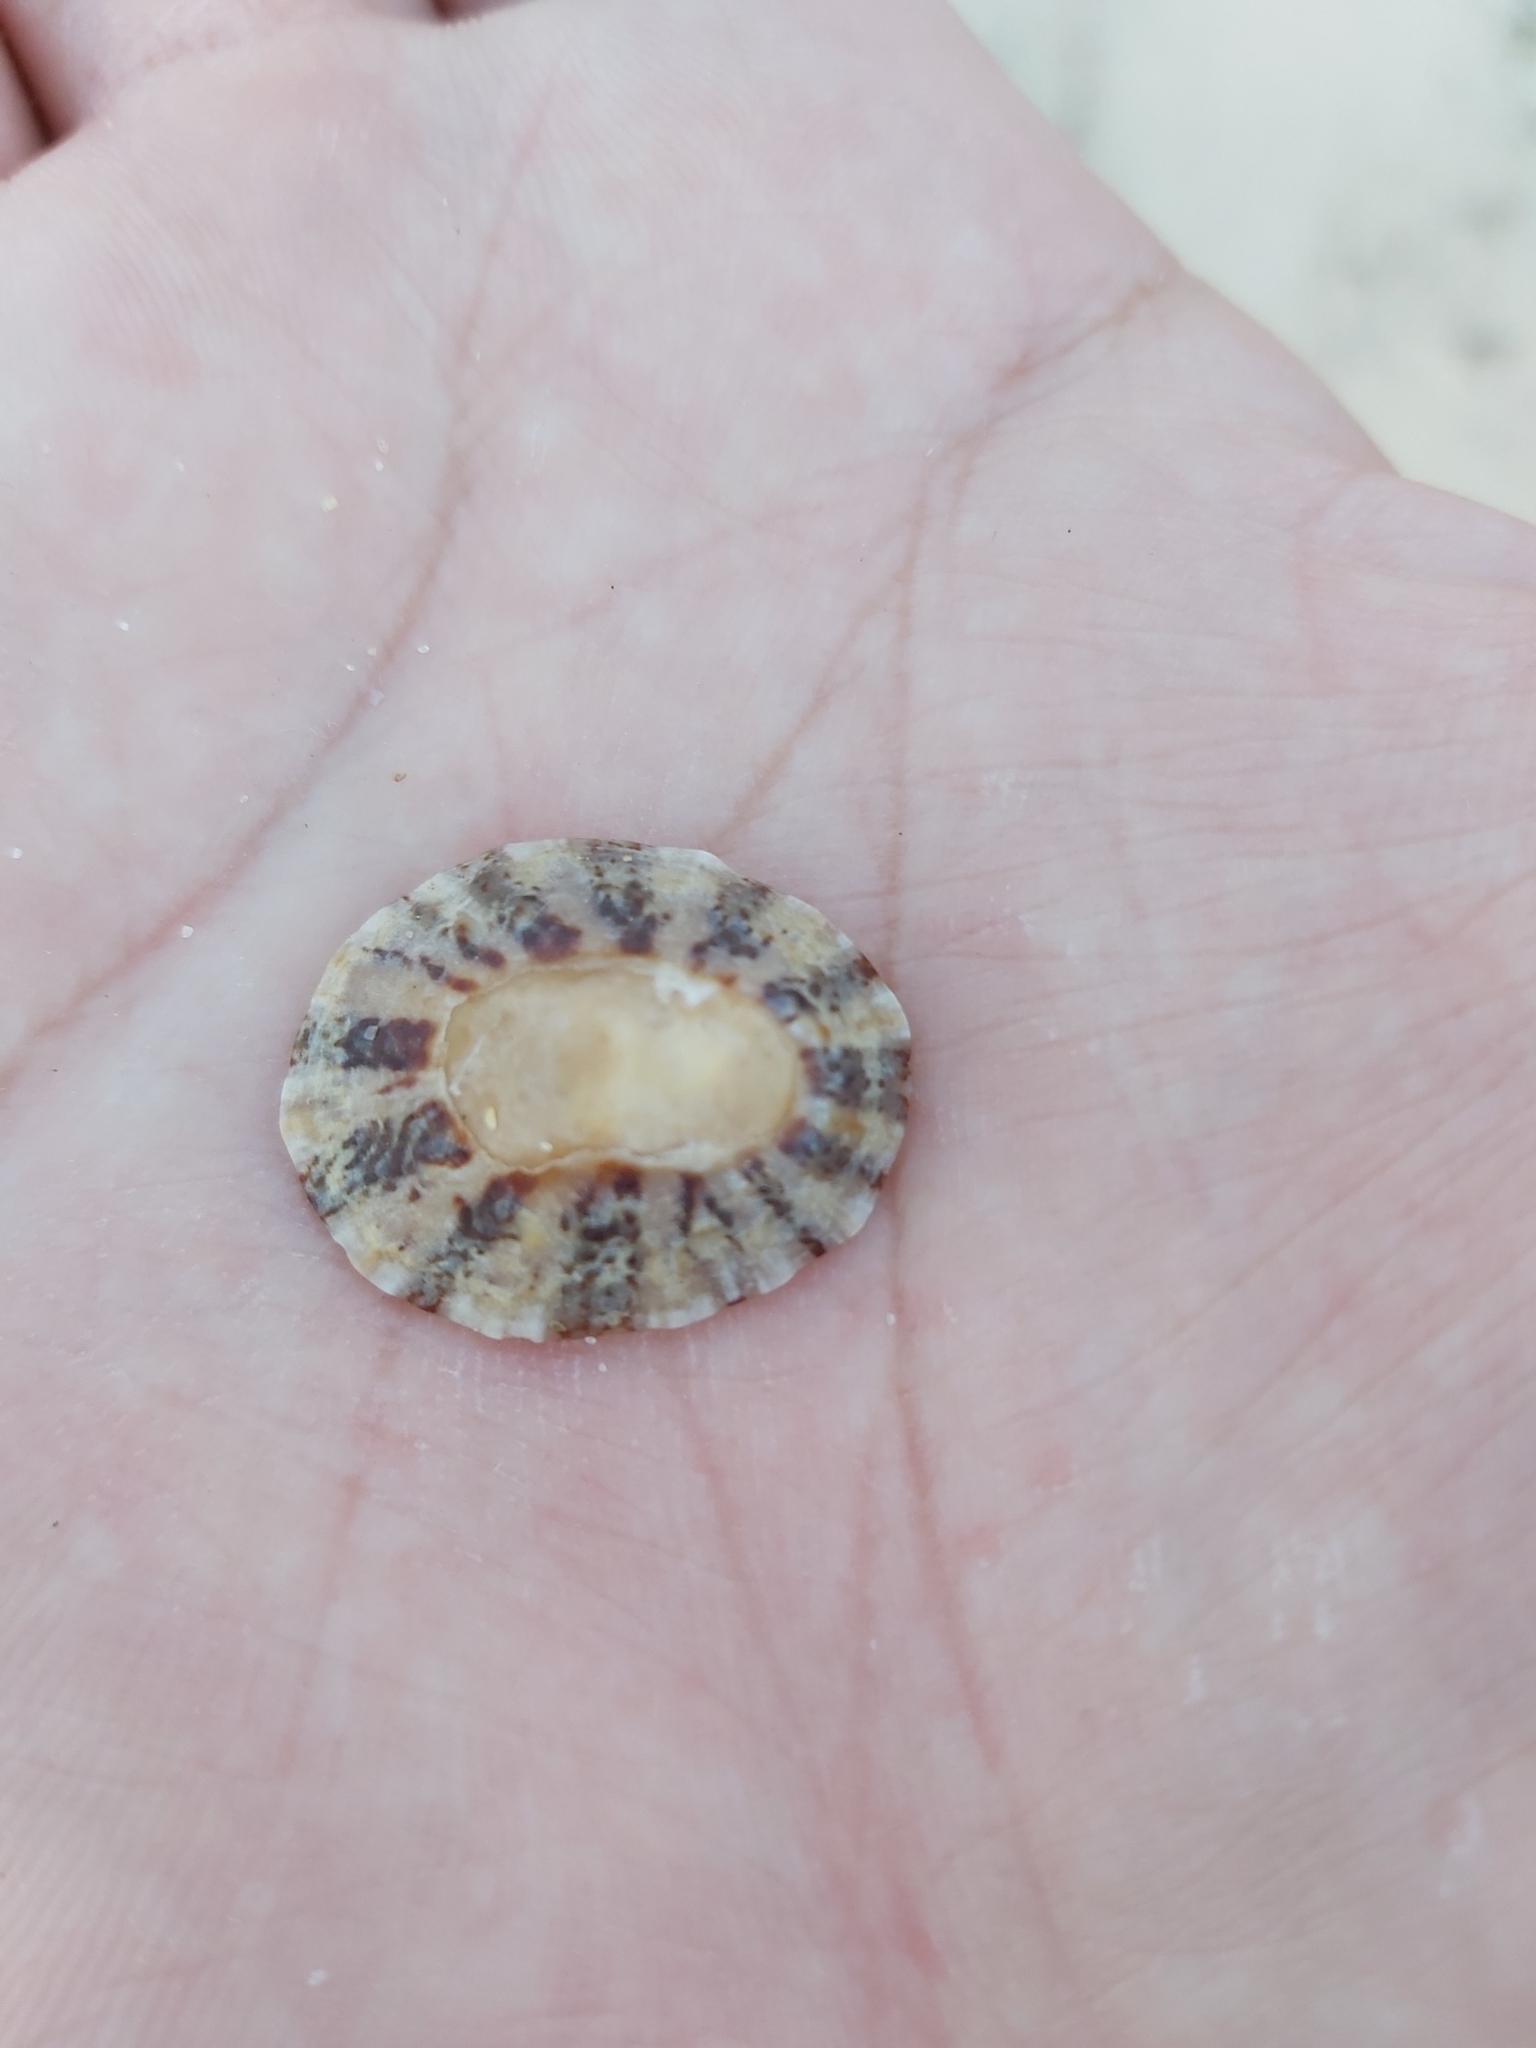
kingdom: Animalia
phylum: Mollusca
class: Gastropoda
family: Nacellidae
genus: Cellana
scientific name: Cellana tramoserica
